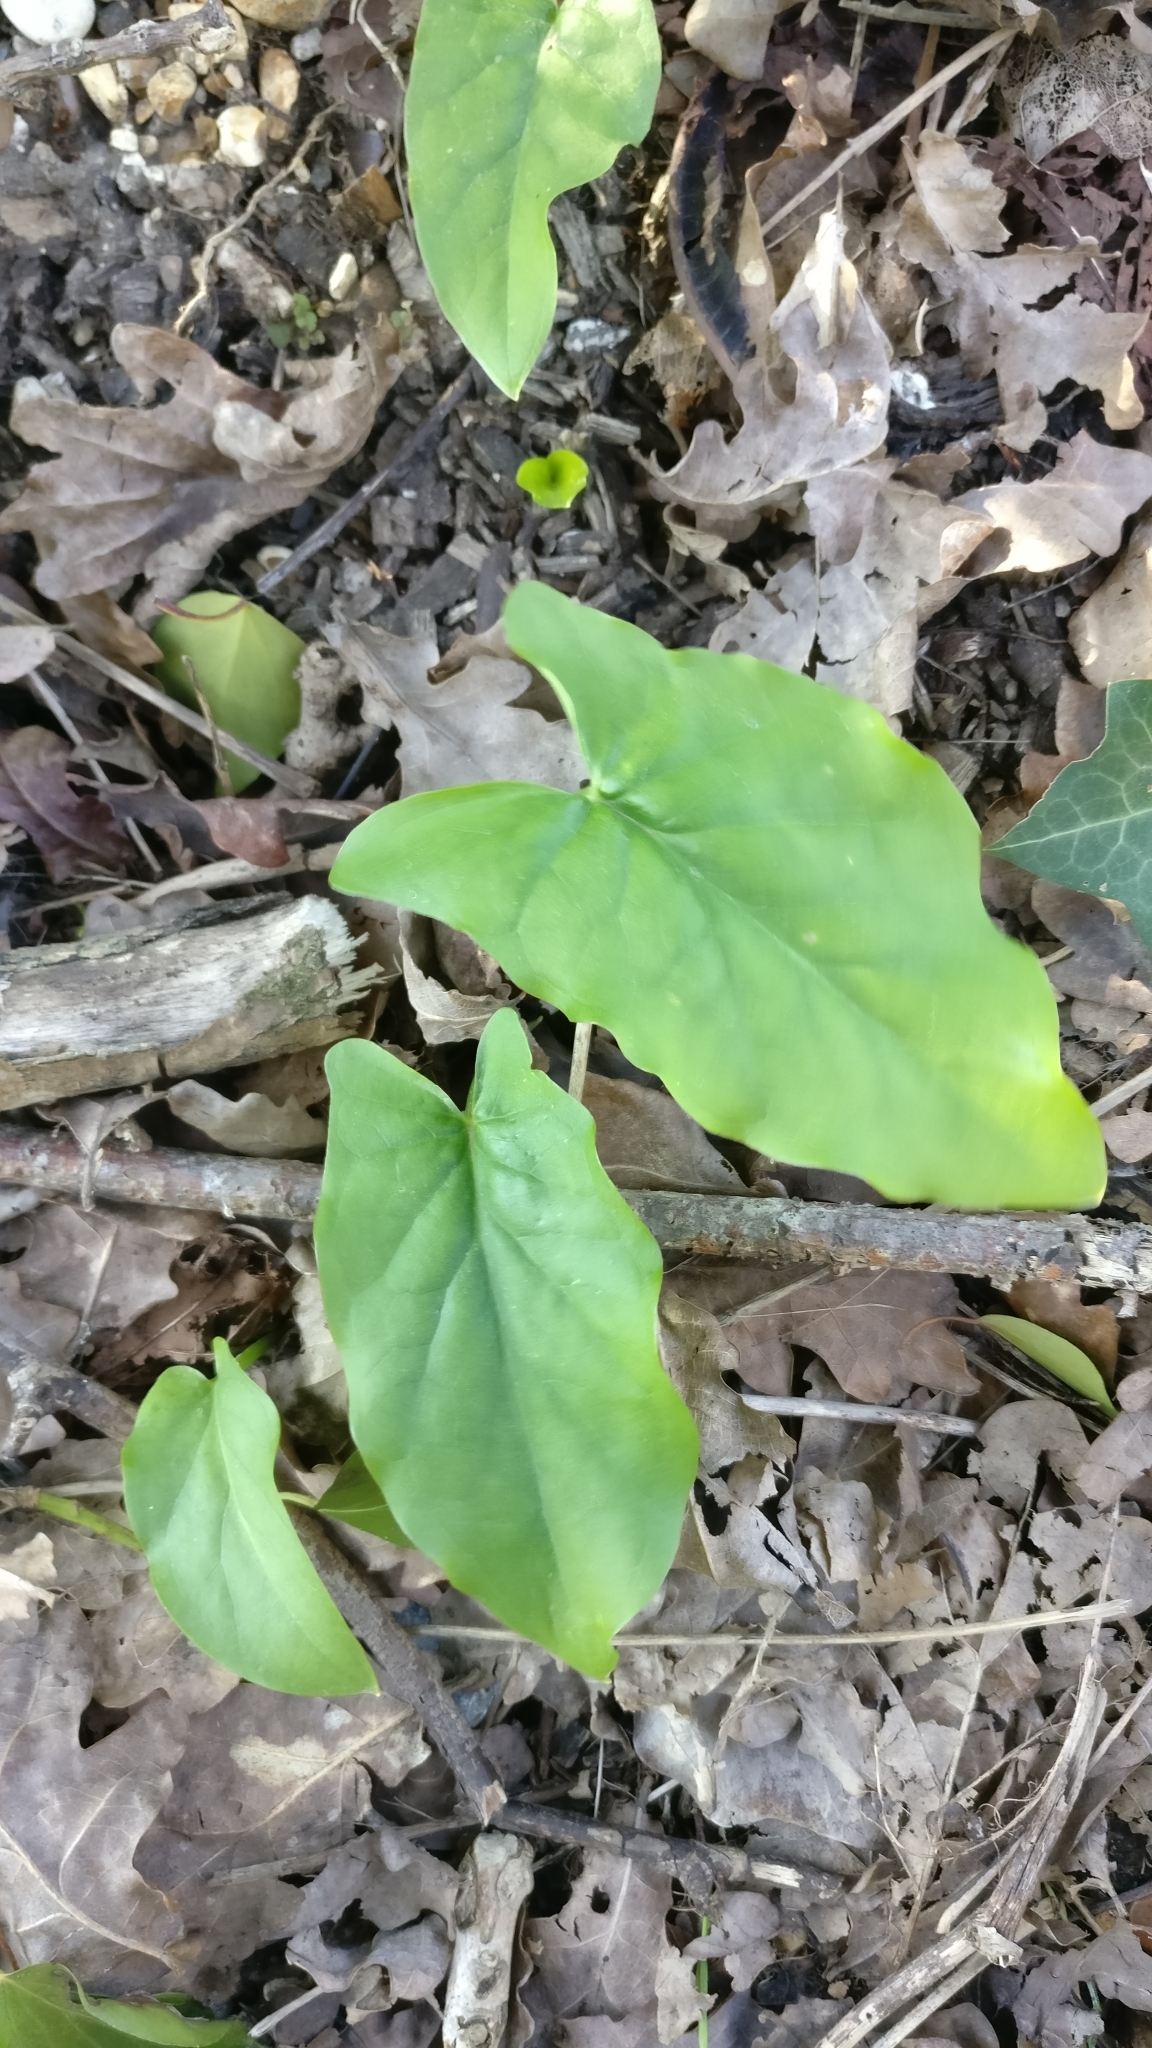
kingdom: Plantae
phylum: Tracheophyta
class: Liliopsida
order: Alismatales
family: Araceae
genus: Arum
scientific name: Arum maculatum
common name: Lords-and-ladies
